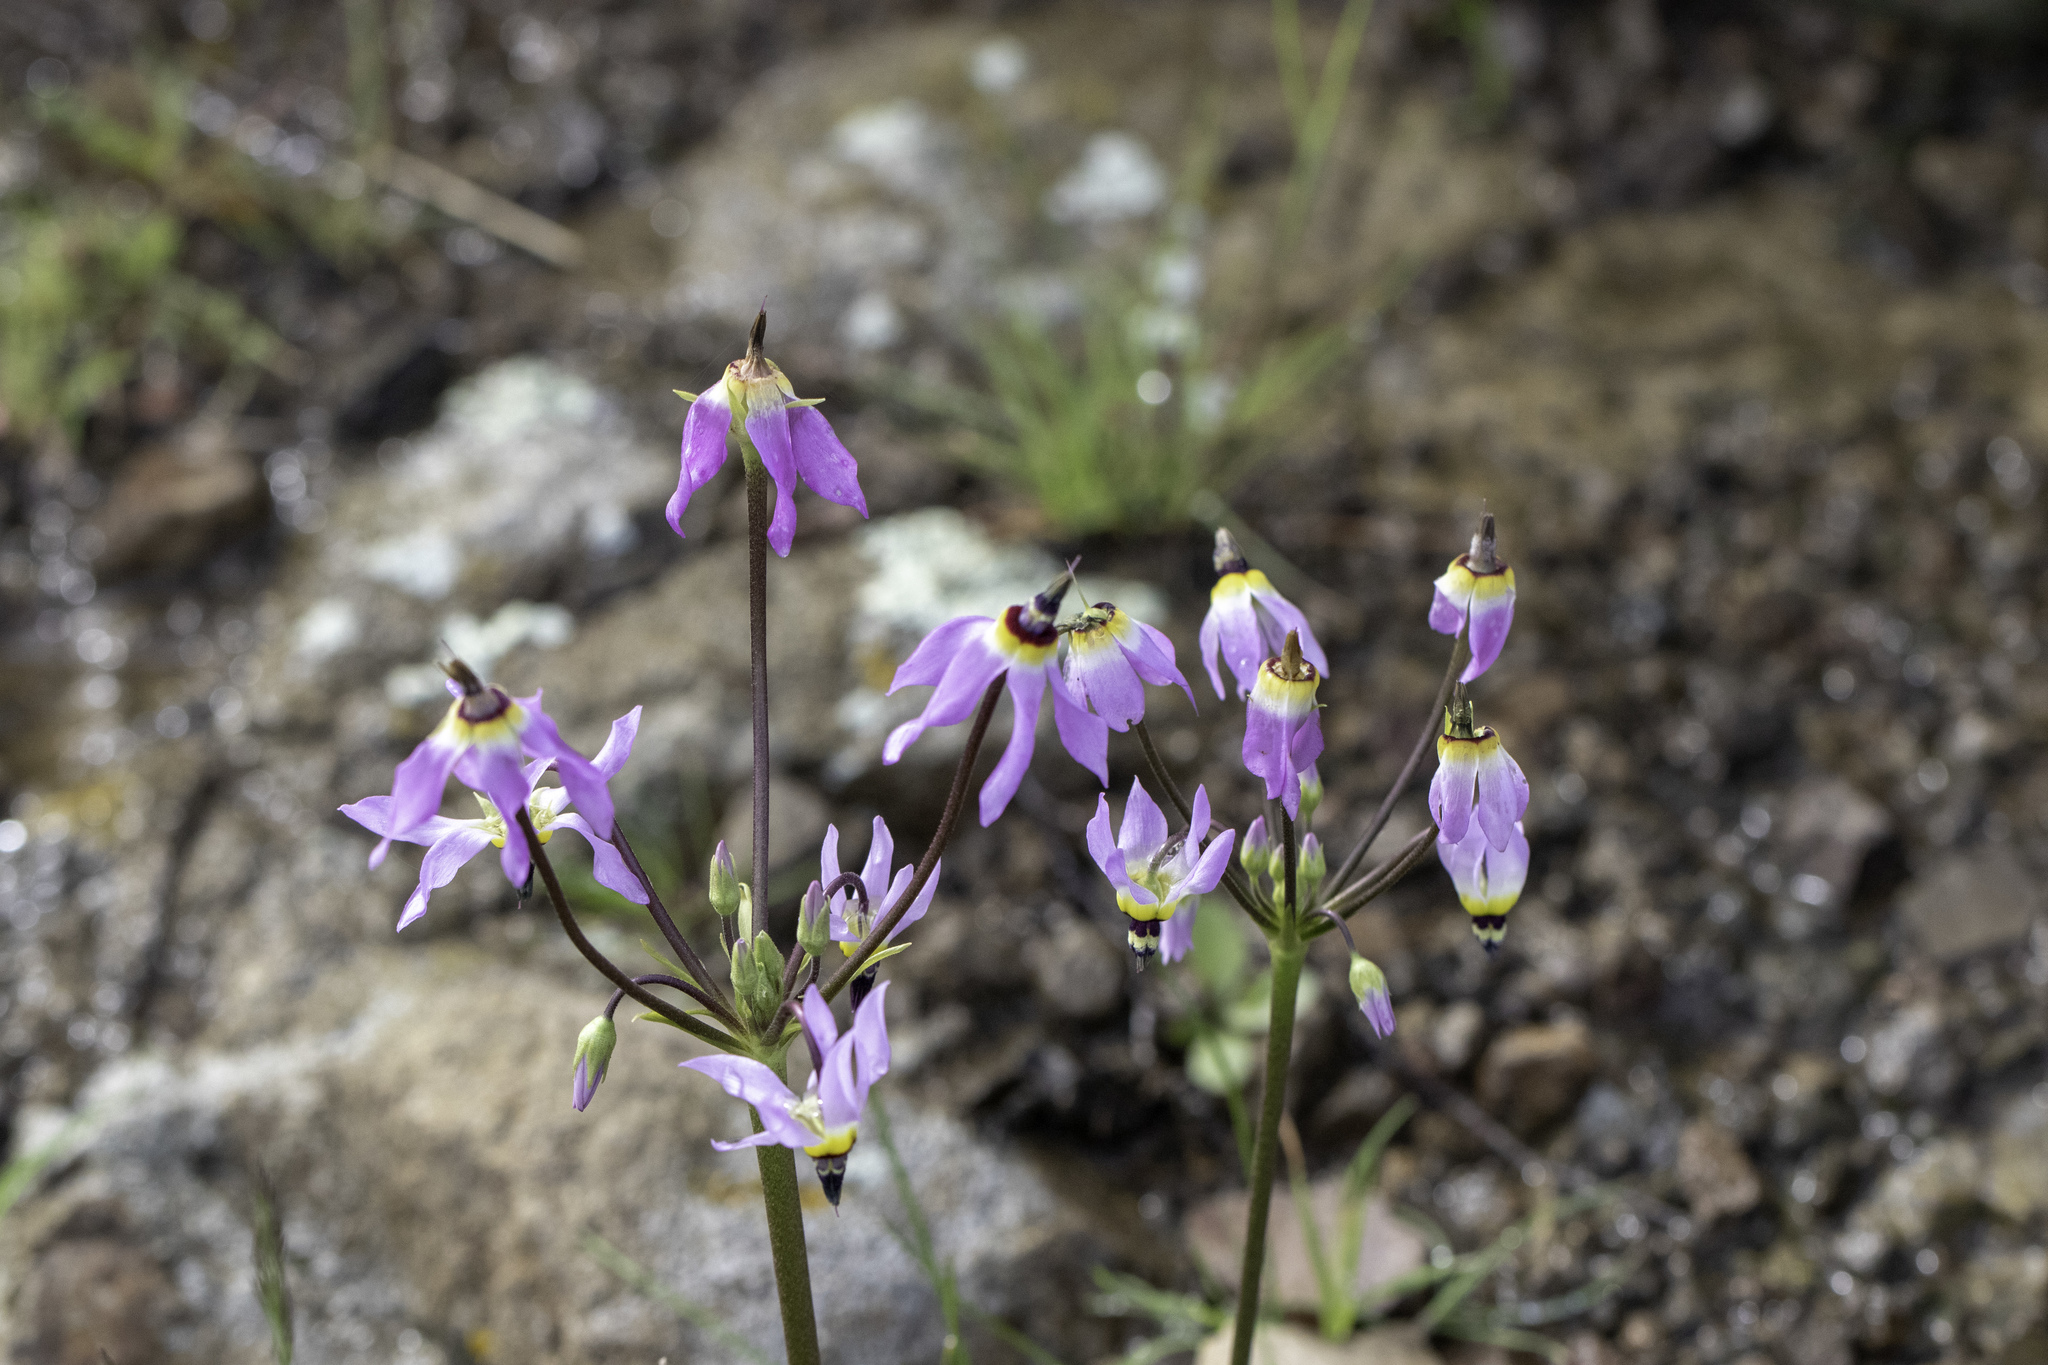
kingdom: Plantae
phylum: Tracheophyta
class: Magnoliopsida
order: Ericales
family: Primulaceae
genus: Dodecatheon
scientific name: Dodecatheon clevelandii
